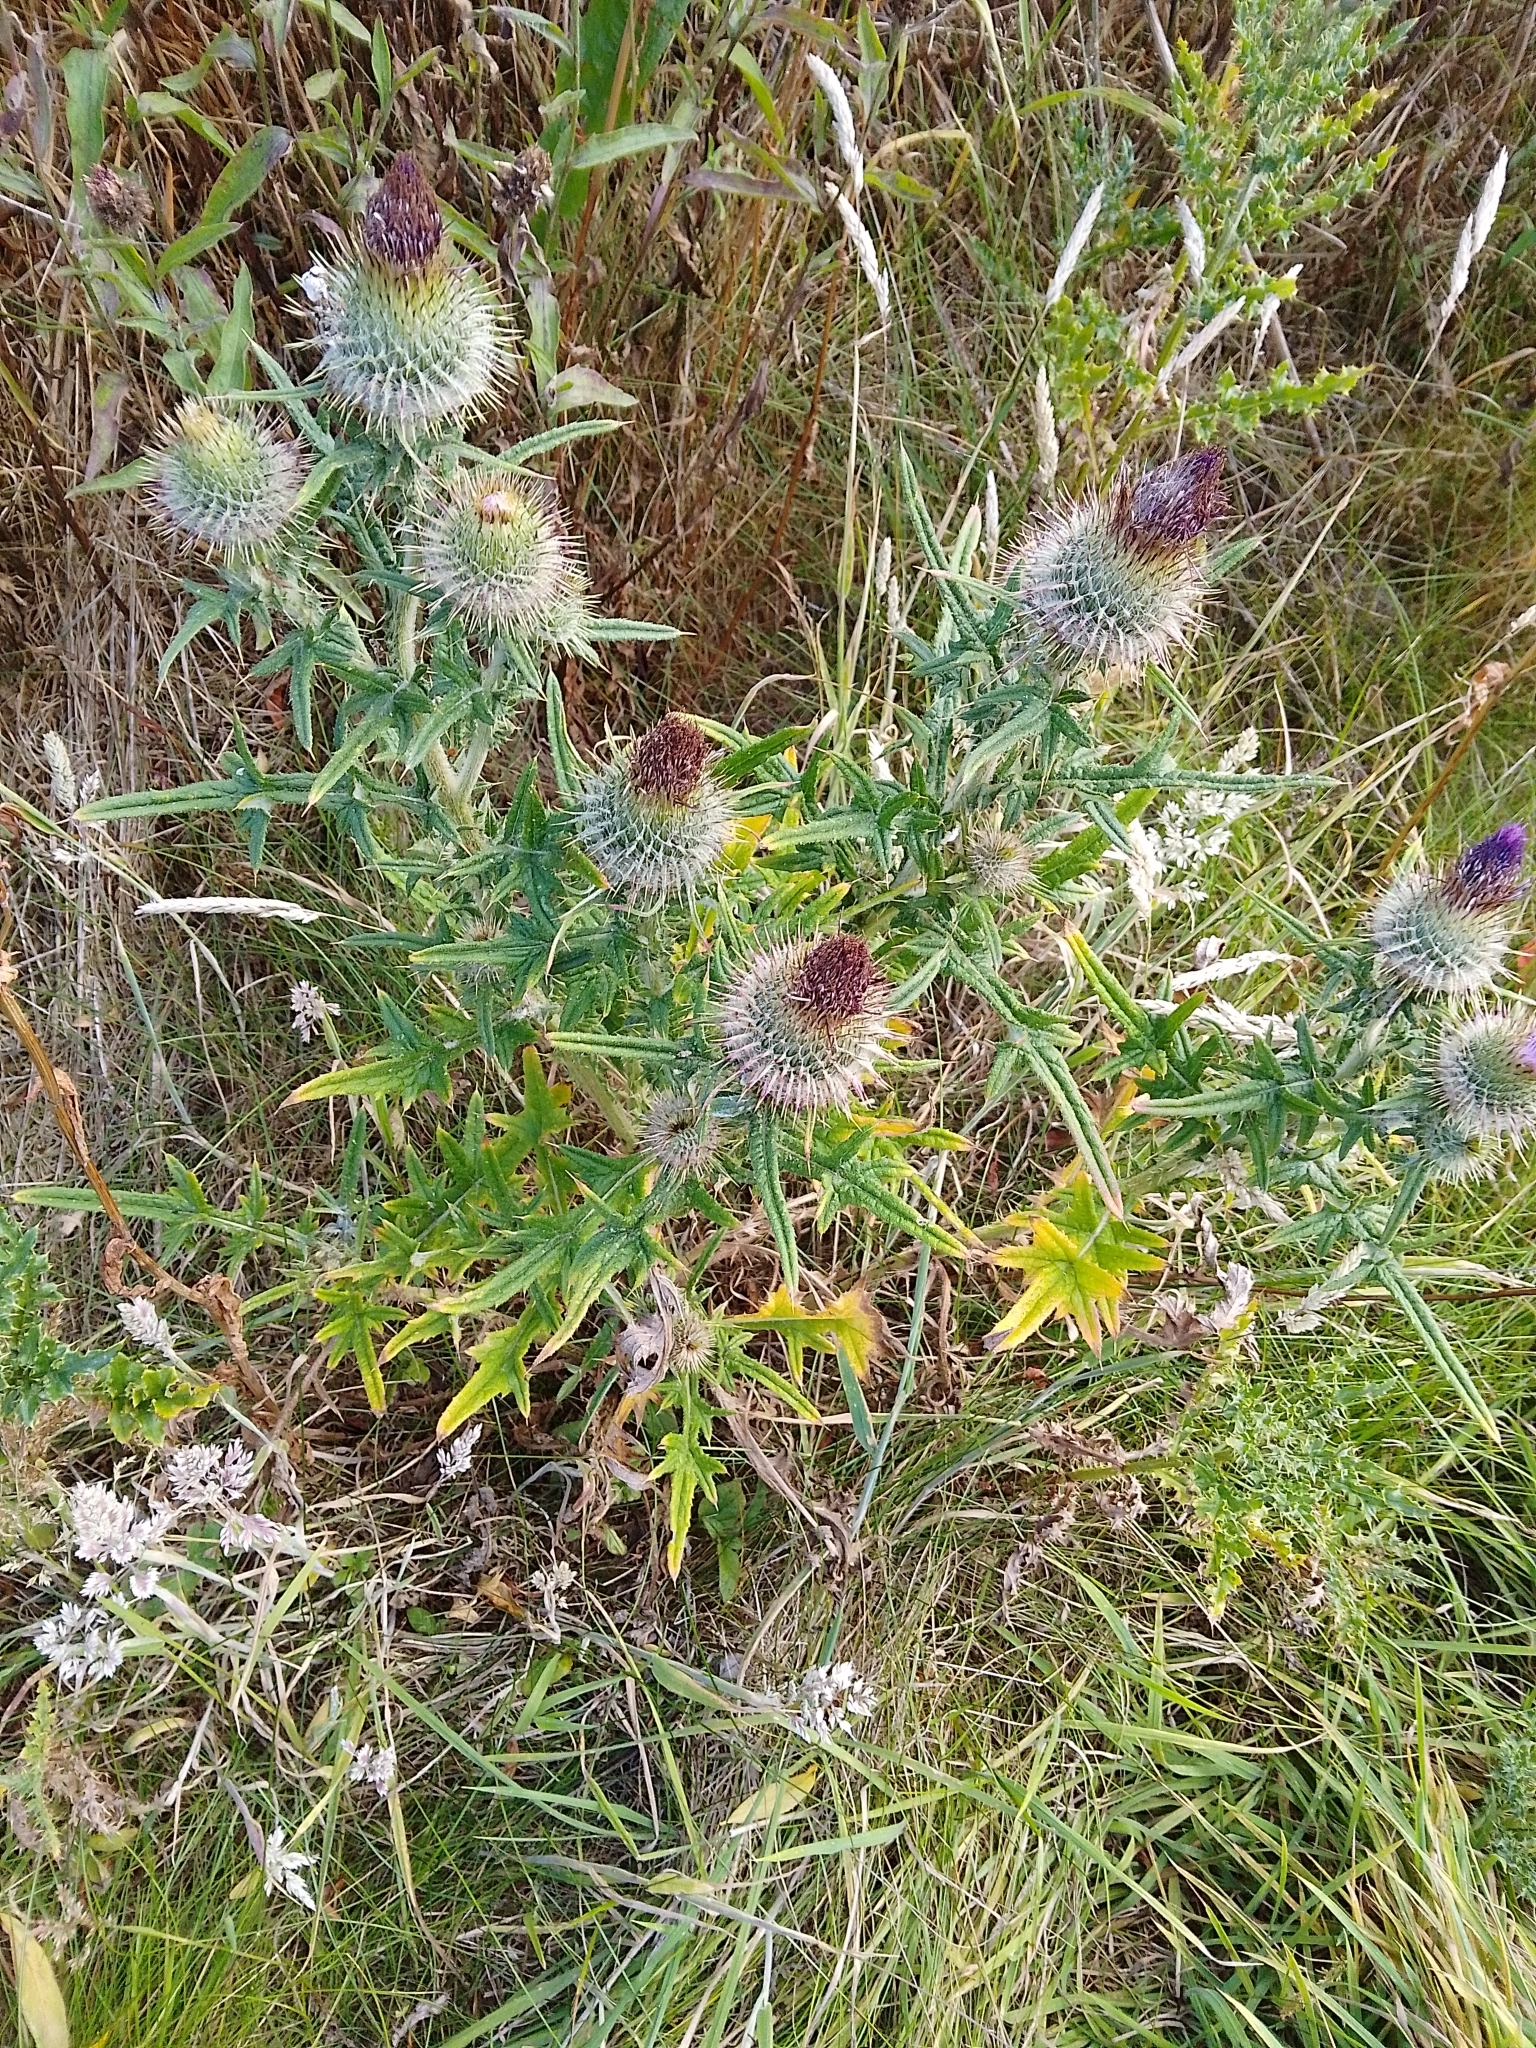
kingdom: Plantae
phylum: Tracheophyta
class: Magnoliopsida
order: Asterales
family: Asteraceae
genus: Cirsium
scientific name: Cirsium vulgare
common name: Bull thistle
